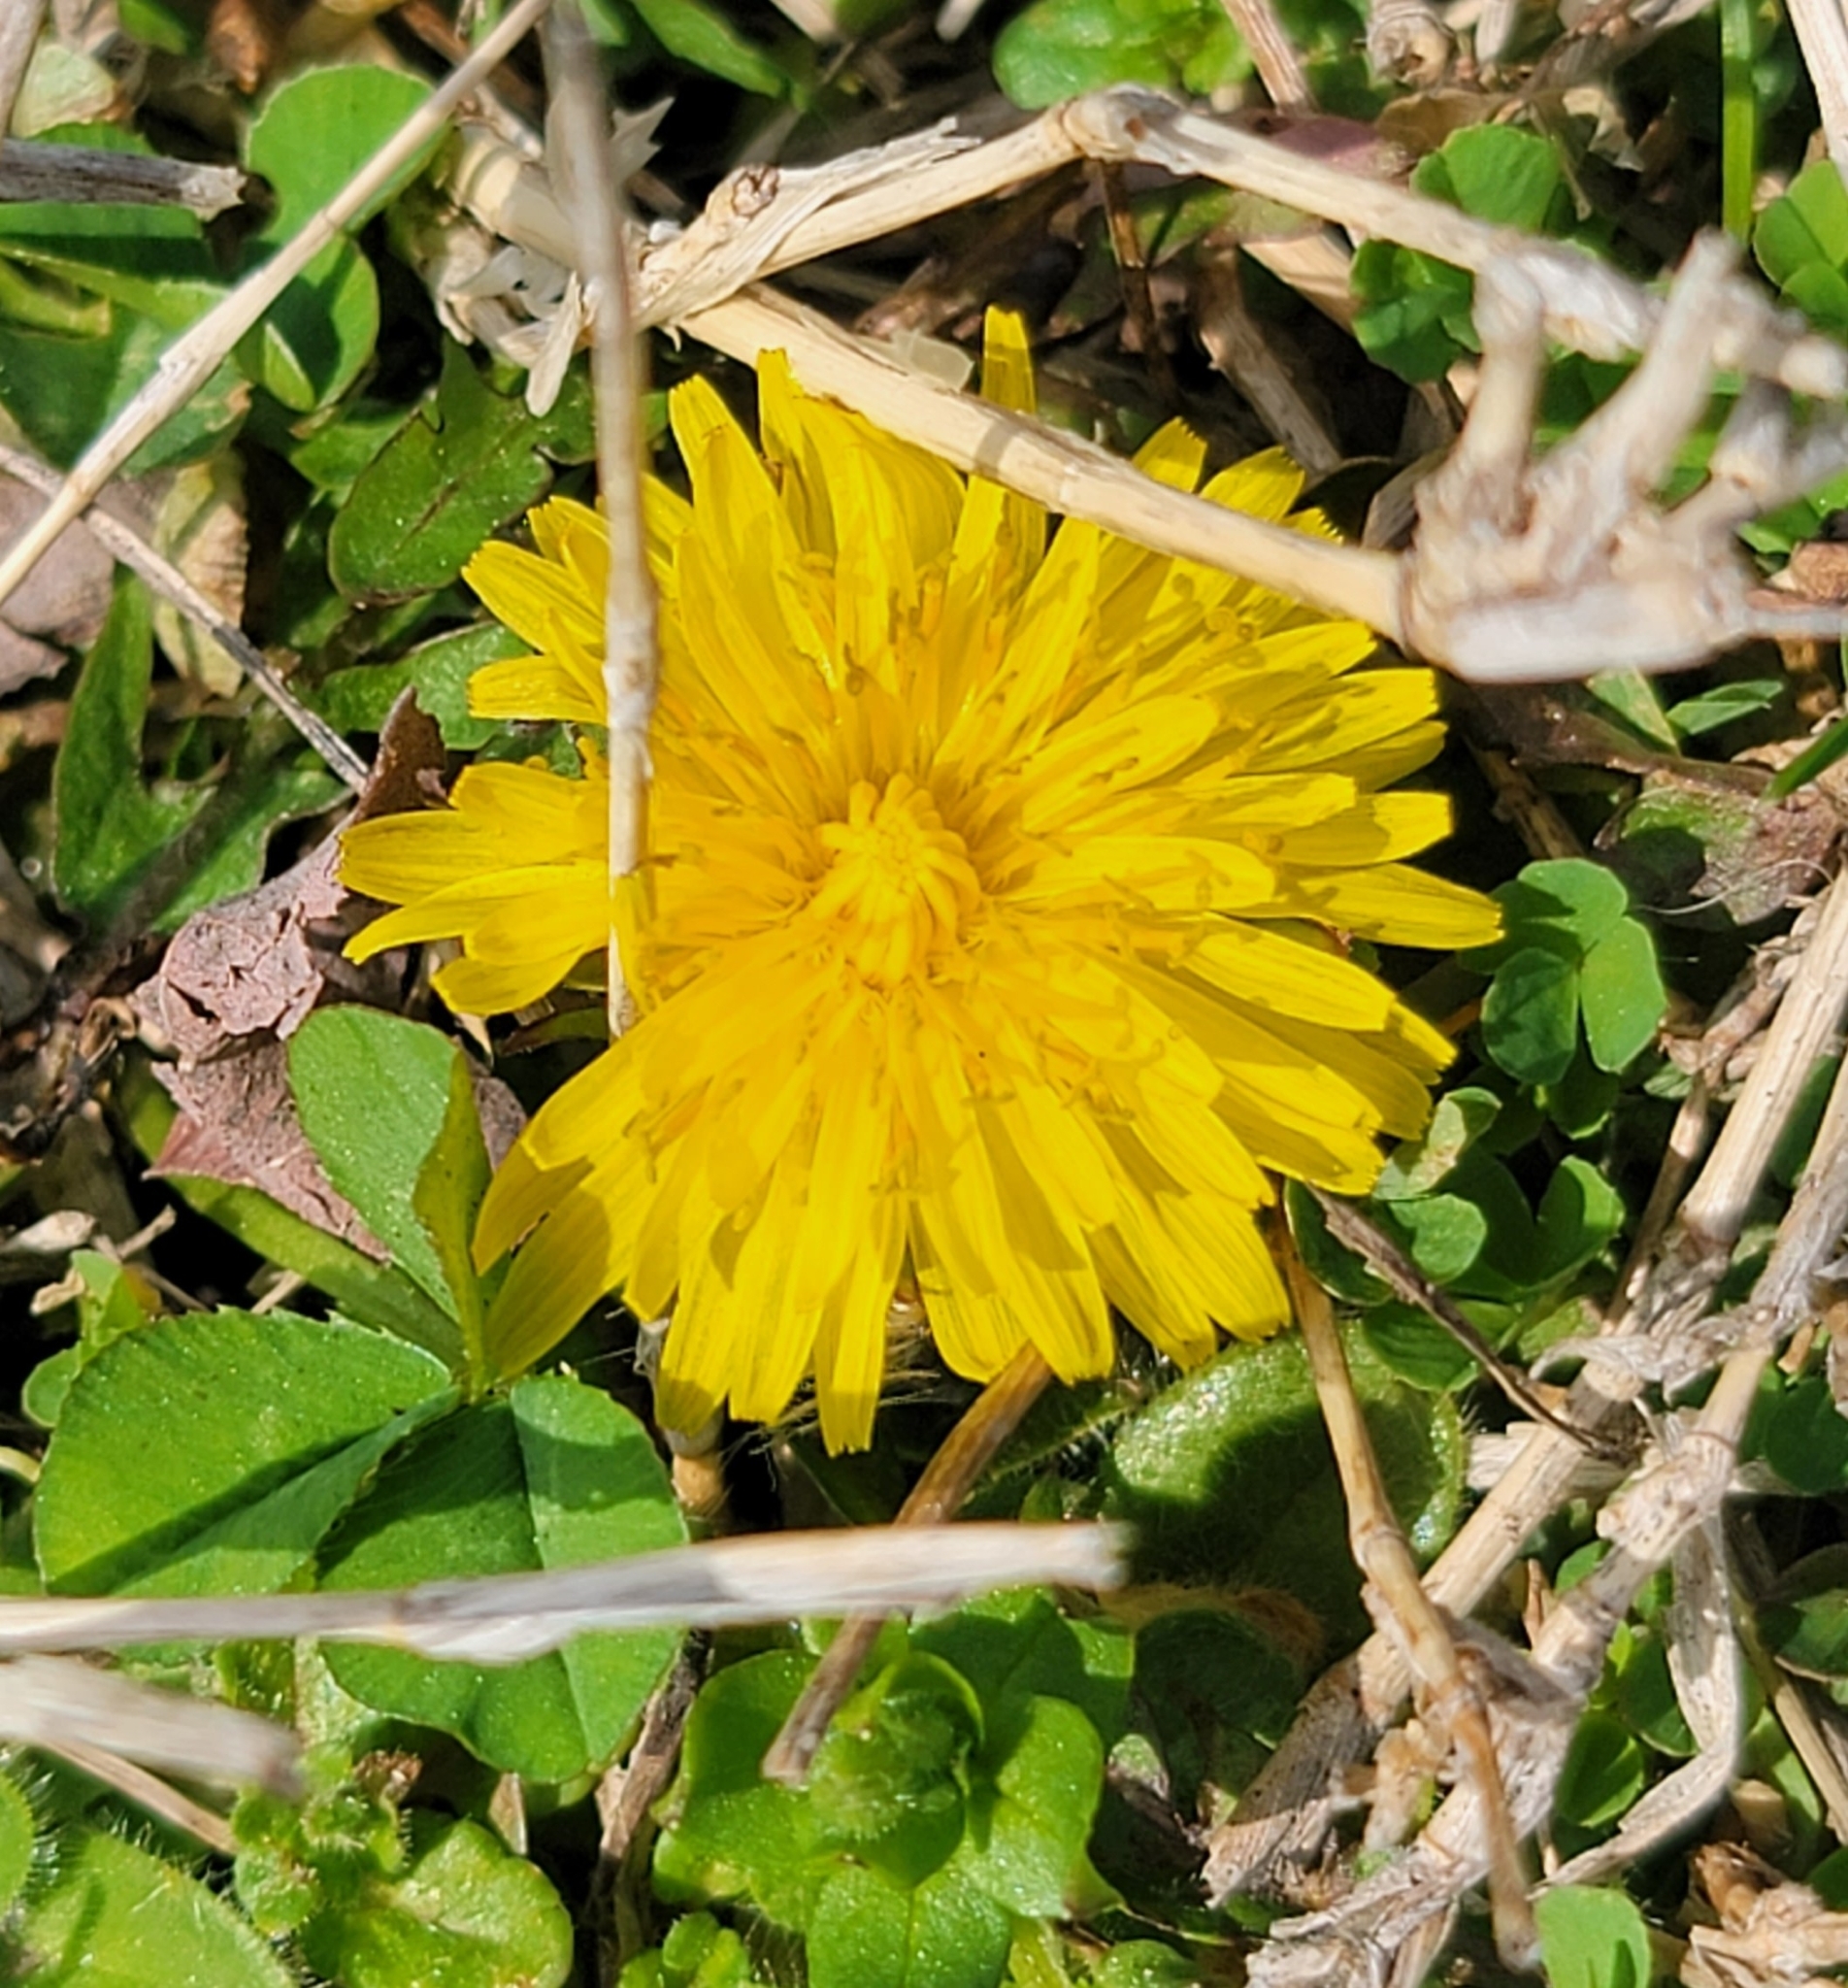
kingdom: Plantae
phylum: Tracheophyta
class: Magnoliopsida
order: Asterales
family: Asteraceae
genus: Taraxacum
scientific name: Taraxacum
